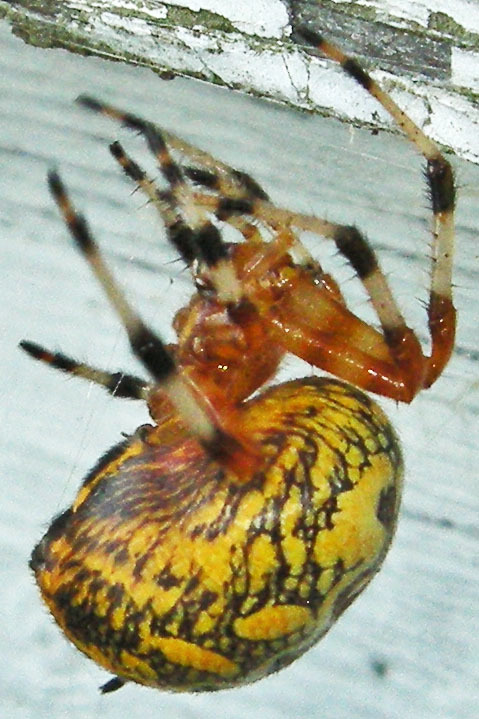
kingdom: Animalia
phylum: Arthropoda
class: Arachnida
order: Araneae
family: Araneidae
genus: Araneus
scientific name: Araneus marmoreus
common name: Marbled orbweaver
